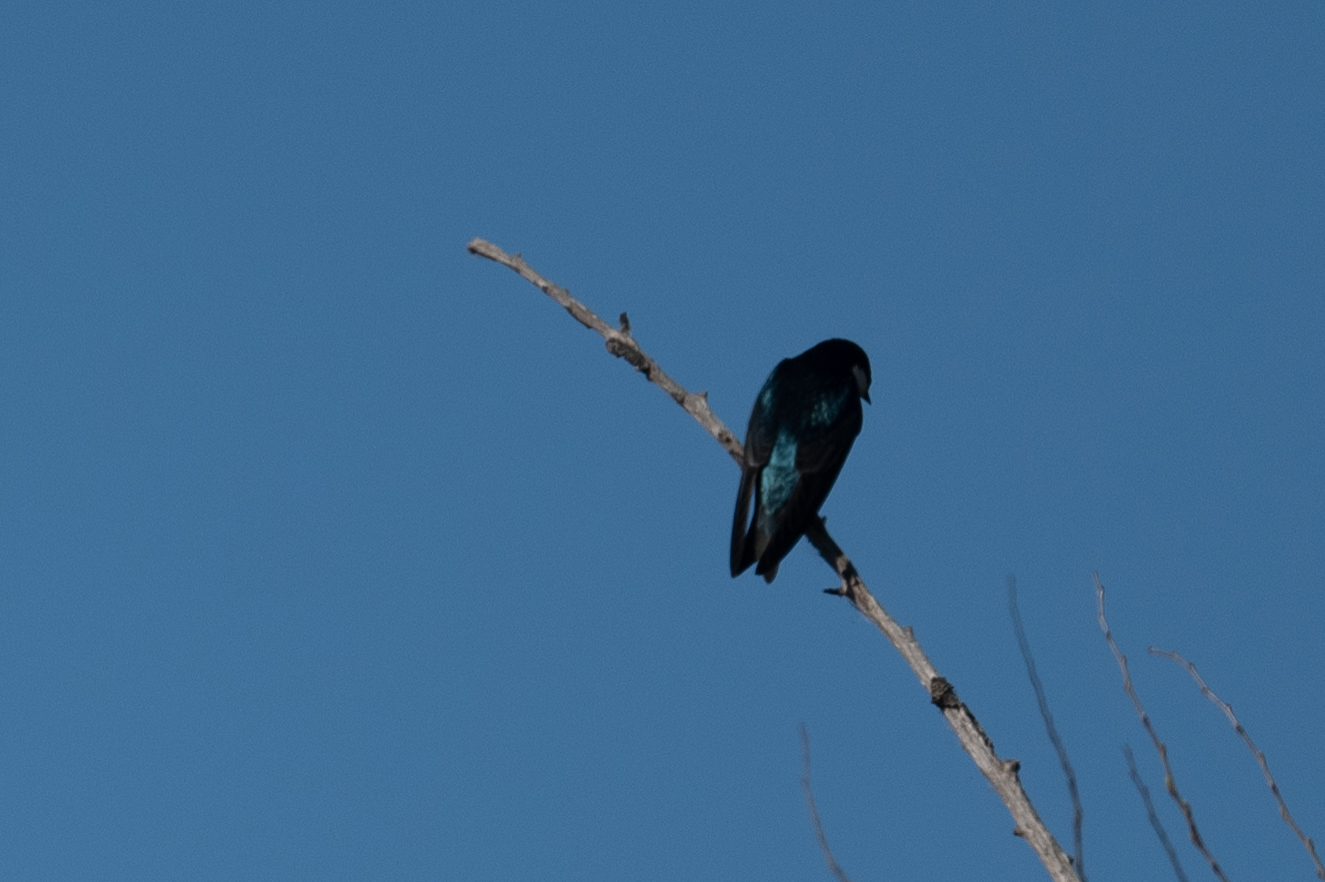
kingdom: Animalia
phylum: Chordata
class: Aves
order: Passeriformes
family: Hirundinidae
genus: Tachycineta
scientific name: Tachycineta bicolor
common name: Tree swallow
